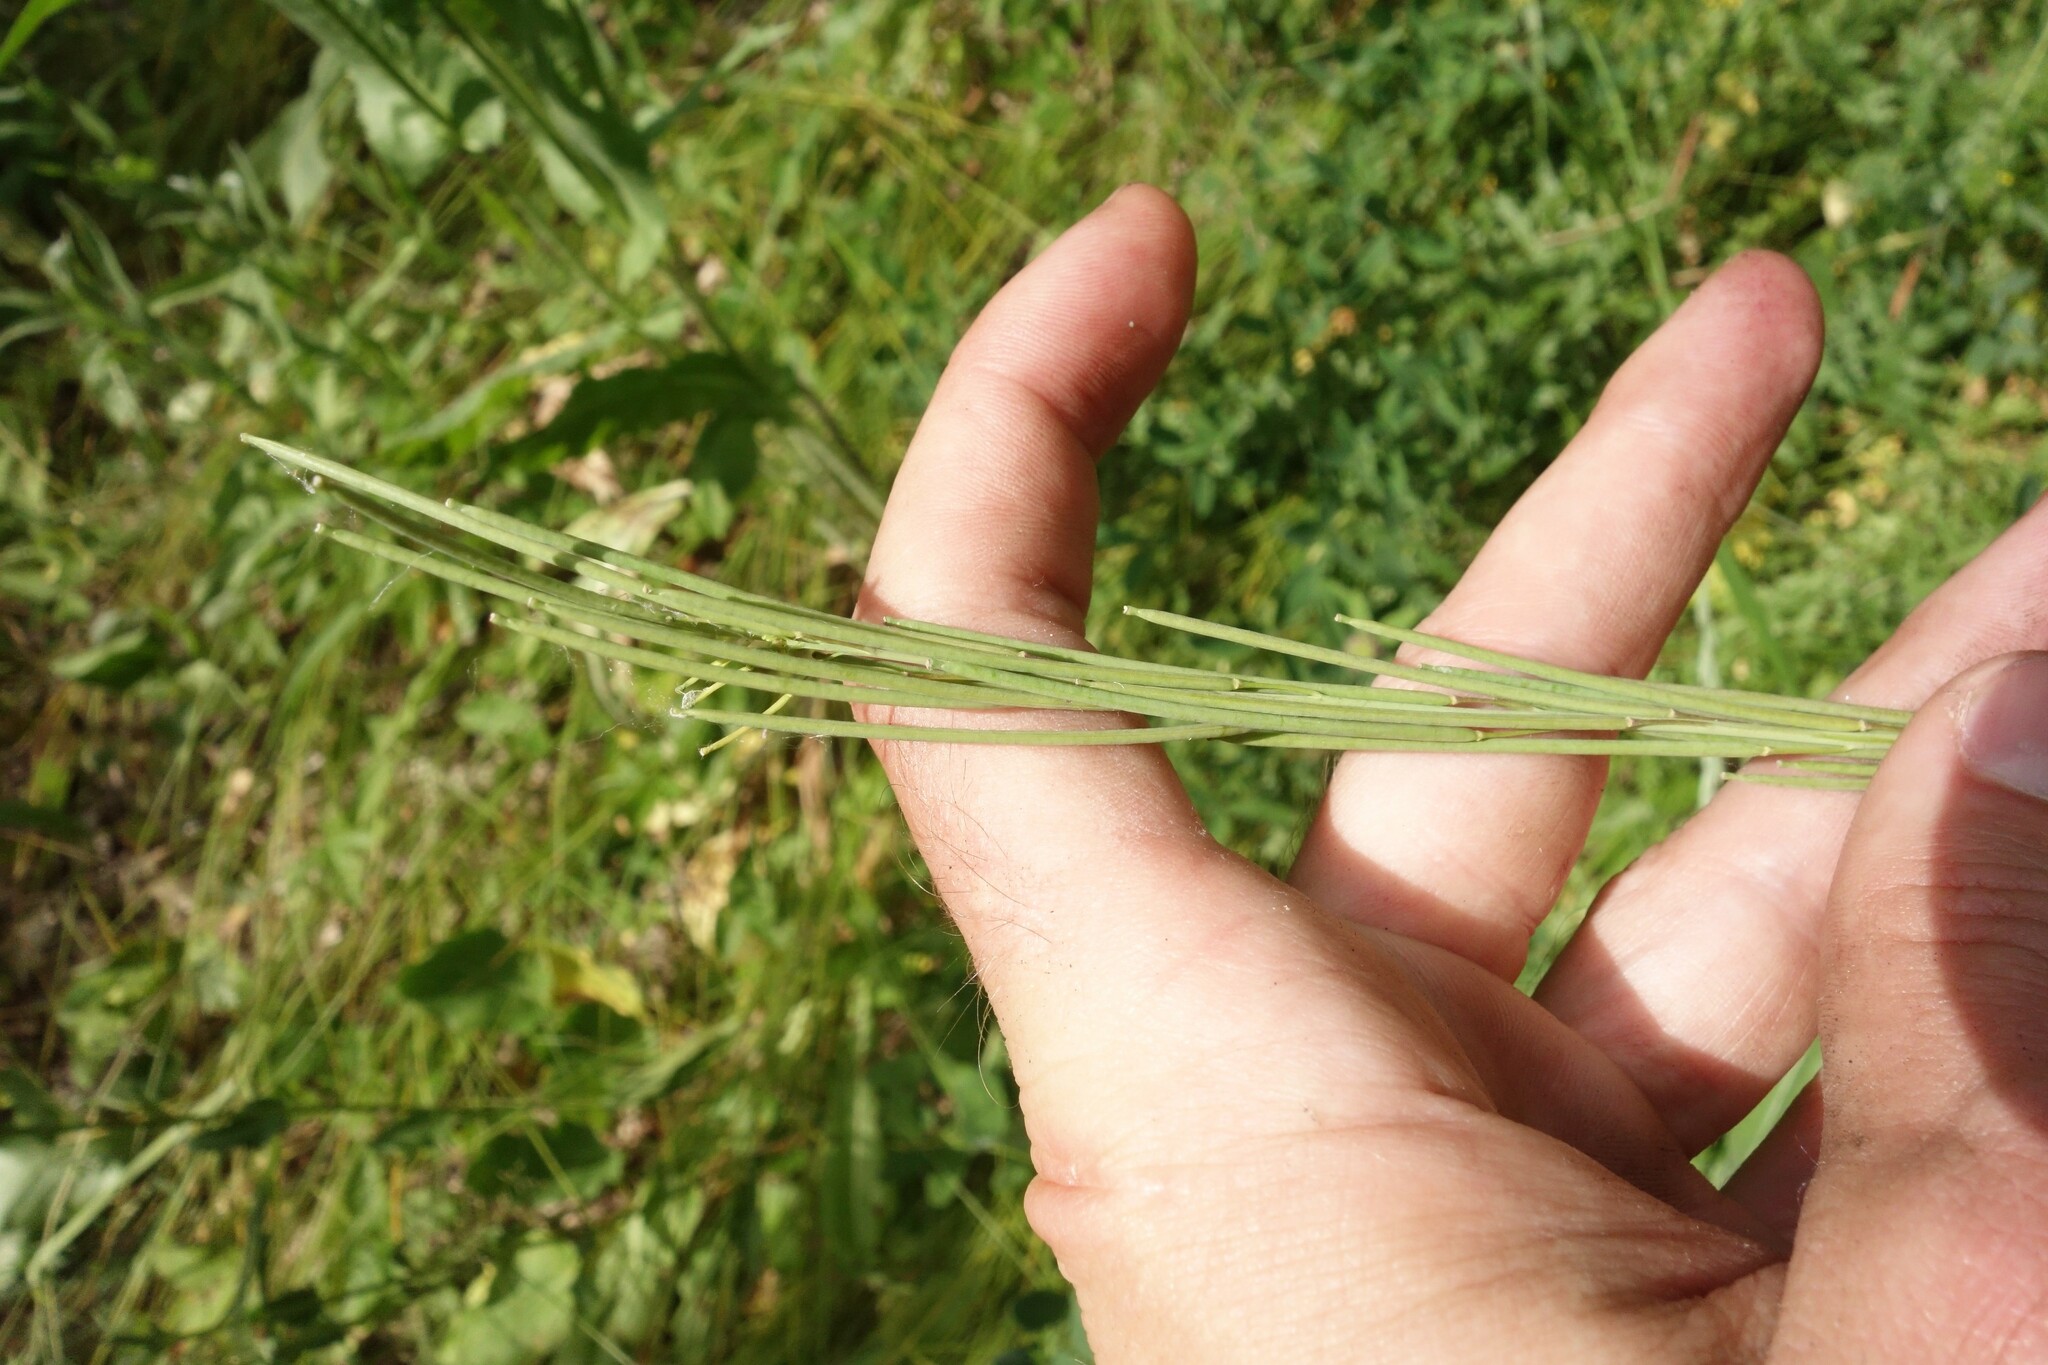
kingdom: Plantae
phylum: Tracheophyta
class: Magnoliopsida
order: Brassicales
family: Brassicaceae
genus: Turritis
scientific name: Turritis glabra
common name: Tower rockcress
